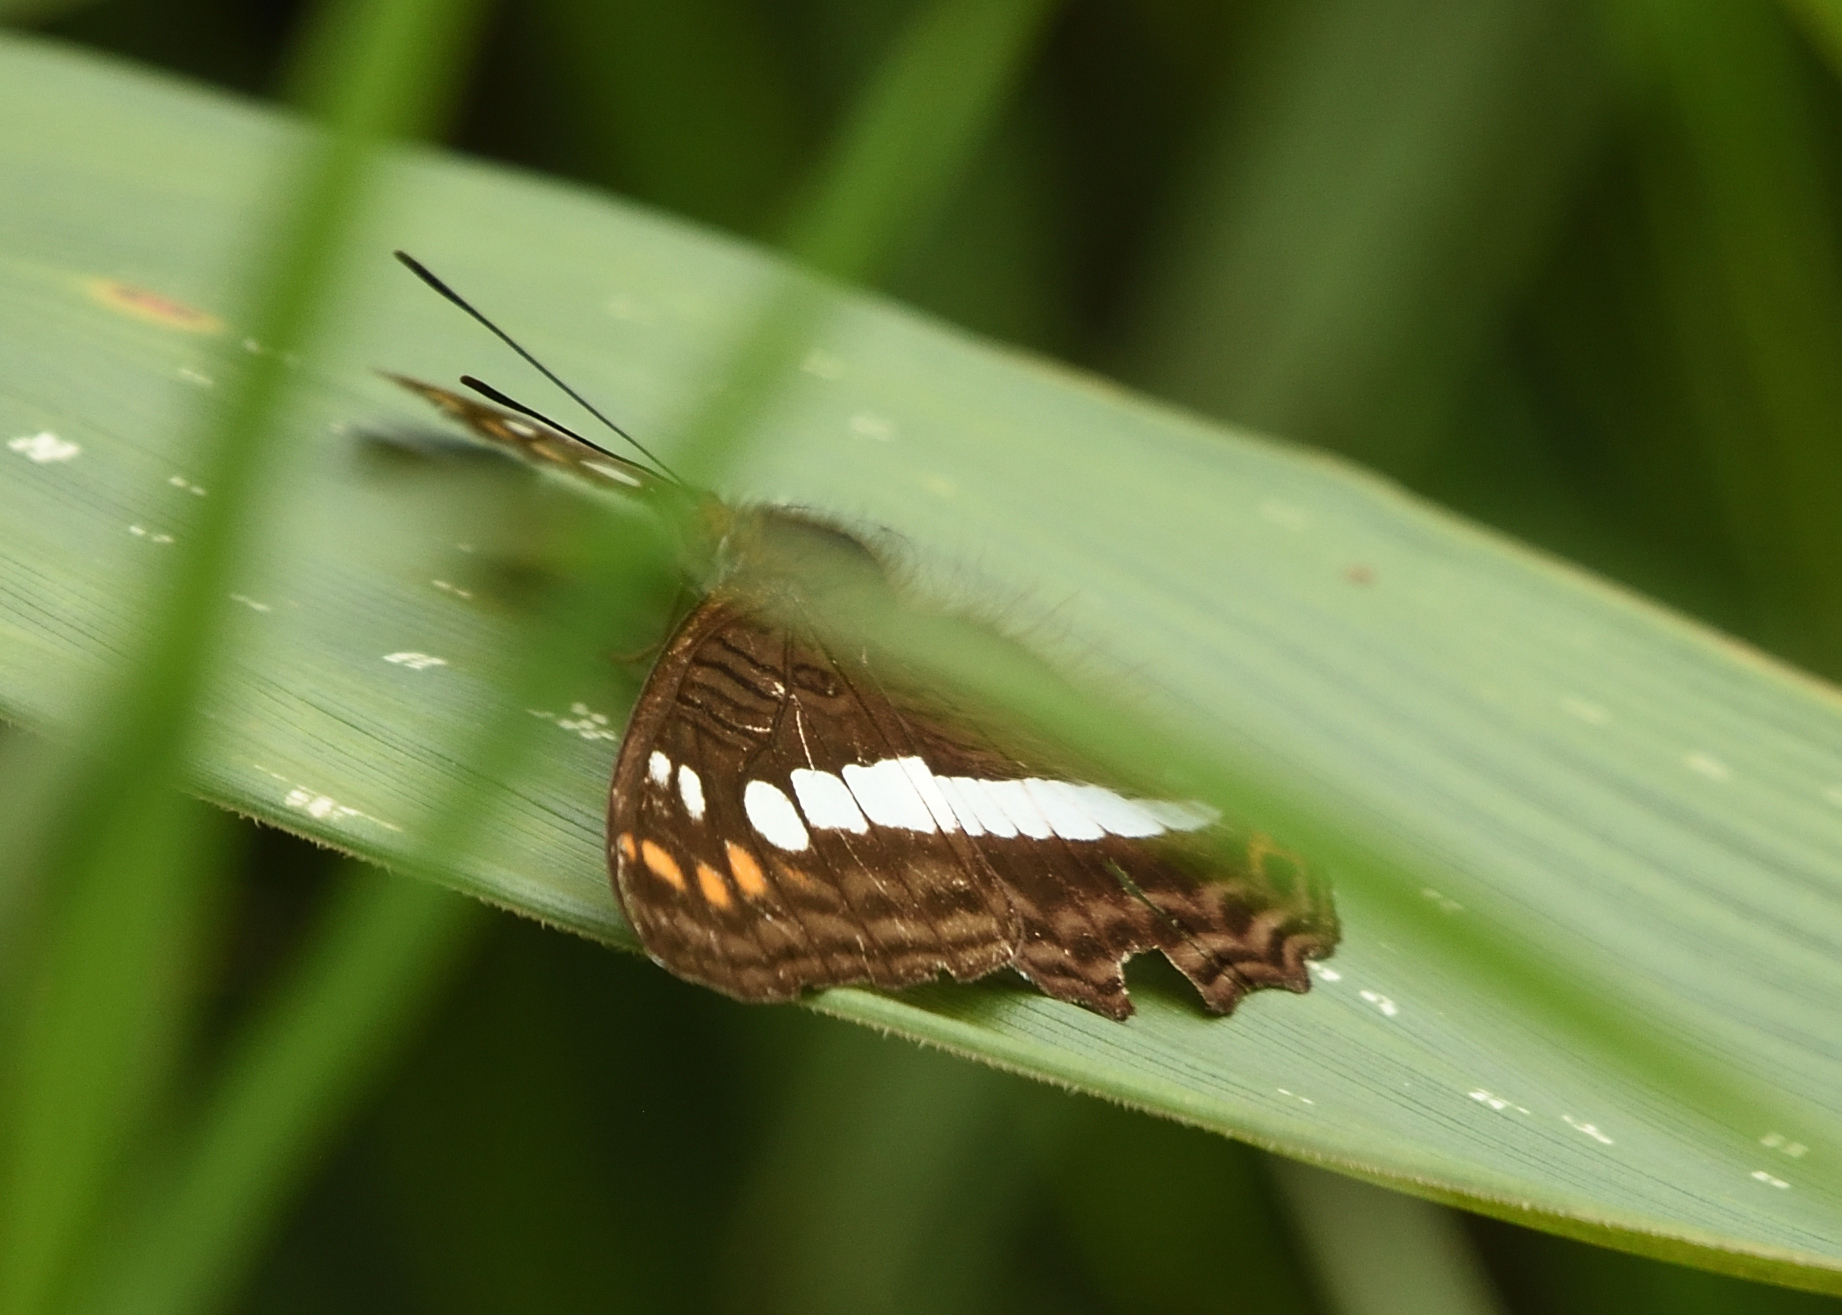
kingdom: Animalia
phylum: Arthropoda
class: Insecta
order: Lepidoptera
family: Nymphalidae
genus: Limenitis
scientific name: Limenitis alala
